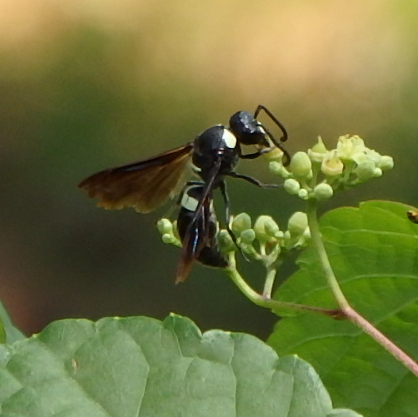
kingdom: Animalia
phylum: Arthropoda
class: Insecta
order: Hymenoptera
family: Eumenidae
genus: Monobia
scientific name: Monobia quadridens
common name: Four-toothed mason wasp
